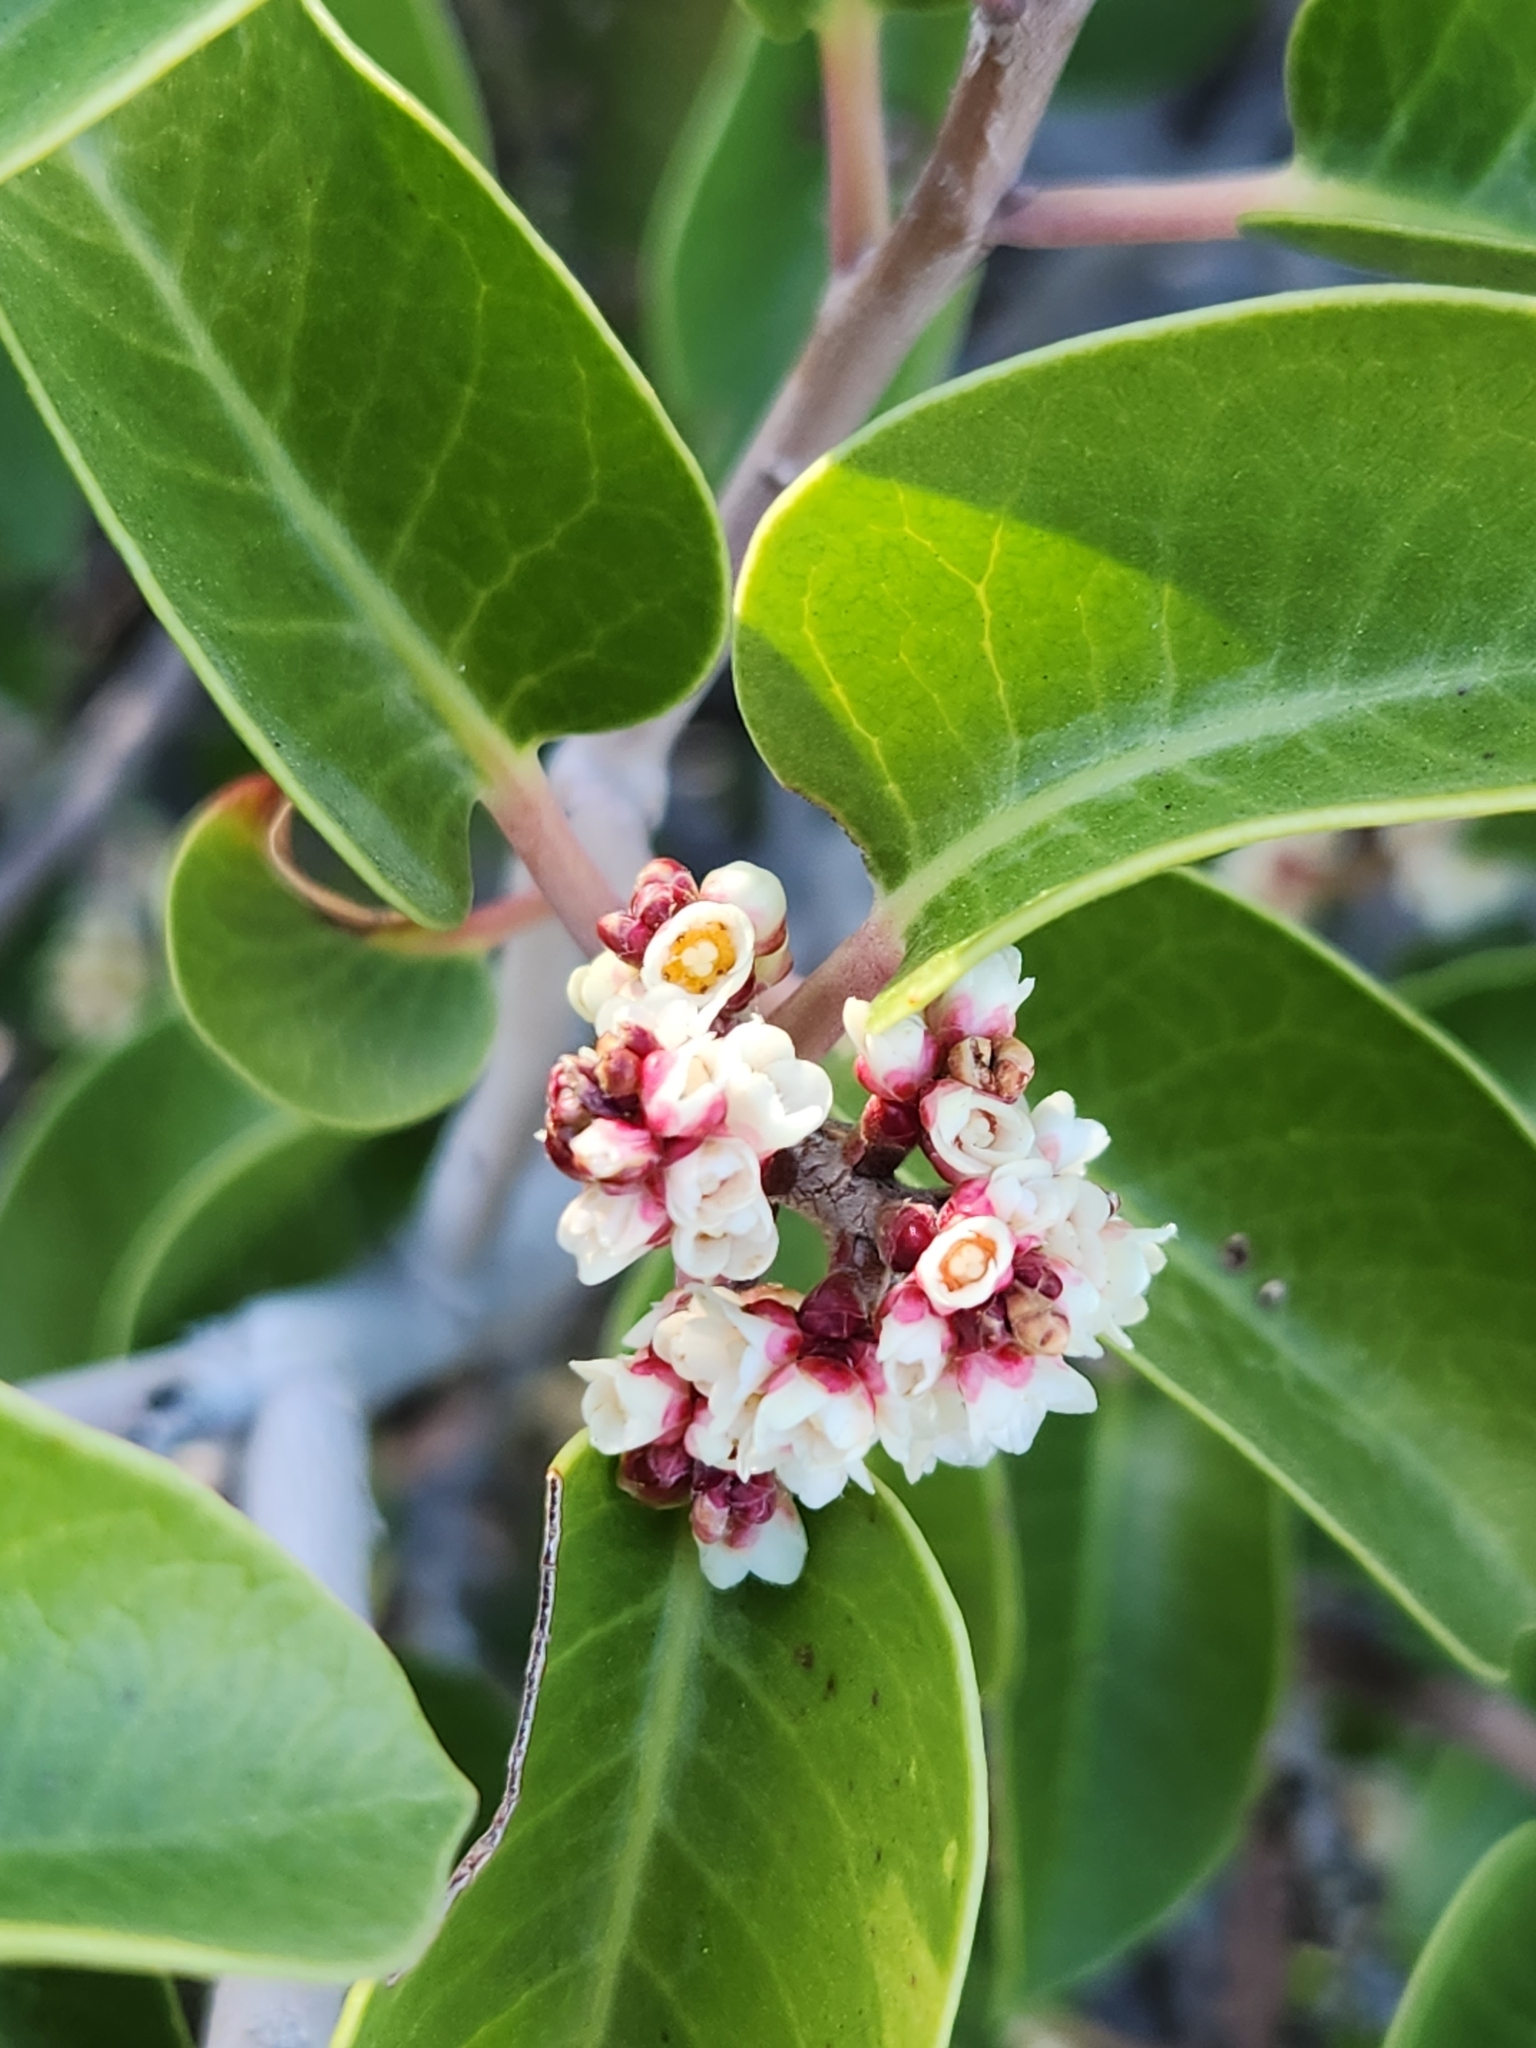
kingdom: Plantae
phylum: Tracheophyta
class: Magnoliopsida
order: Sapindales
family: Anacardiaceae
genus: Rhus
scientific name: Rhus ovata
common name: Sugar sumac
